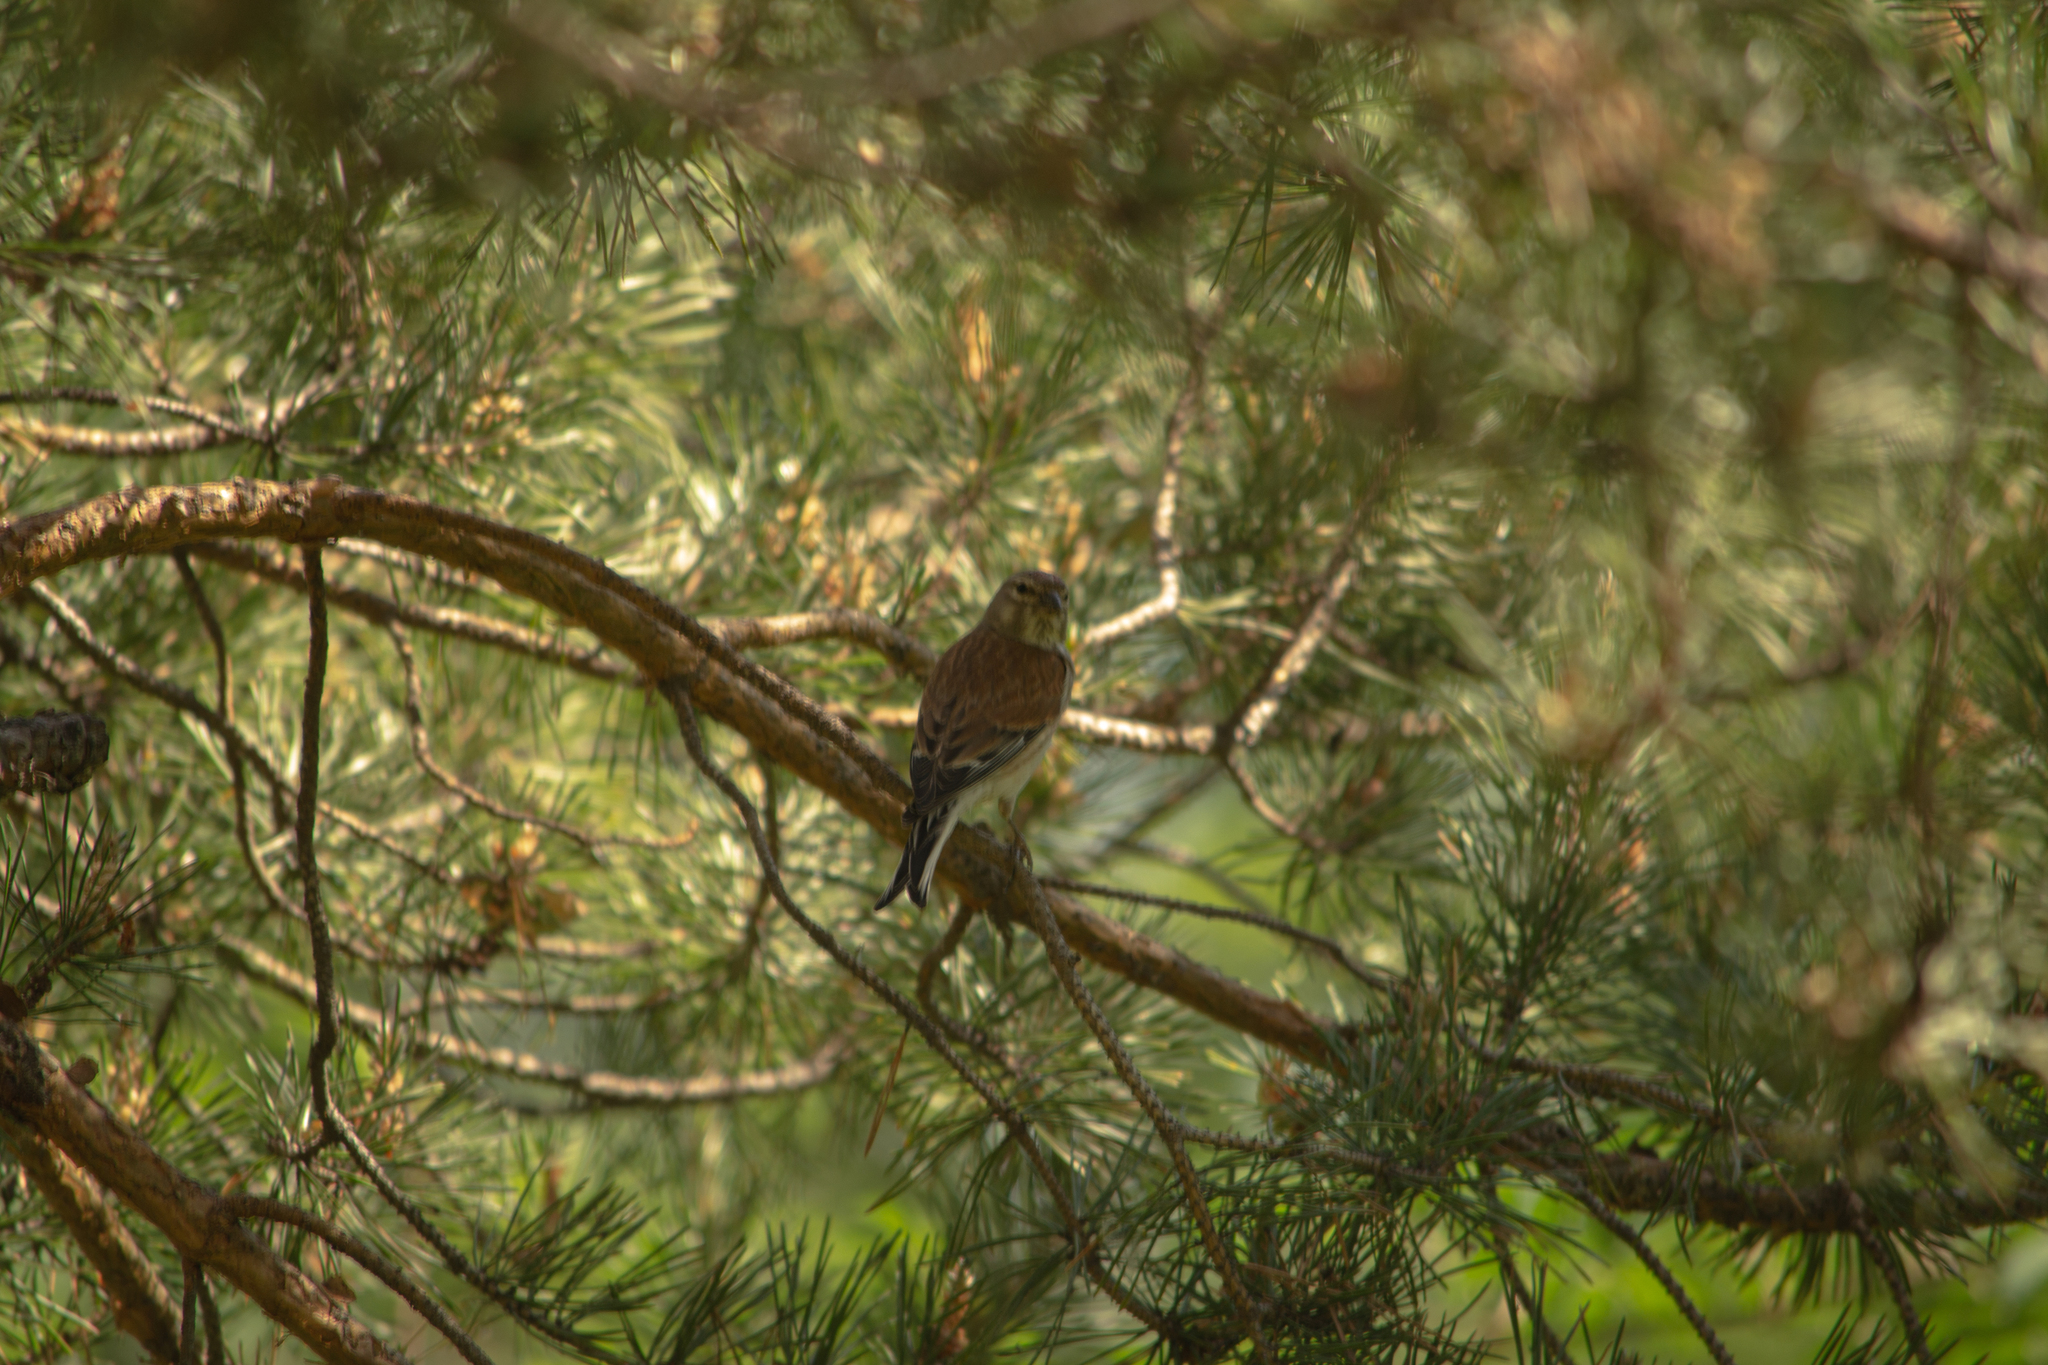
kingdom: Animalia
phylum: Chordata
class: Aves
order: Passeriformes
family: Fringillidae
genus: Linaria
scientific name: Linaria cannabina
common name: Common linnet
